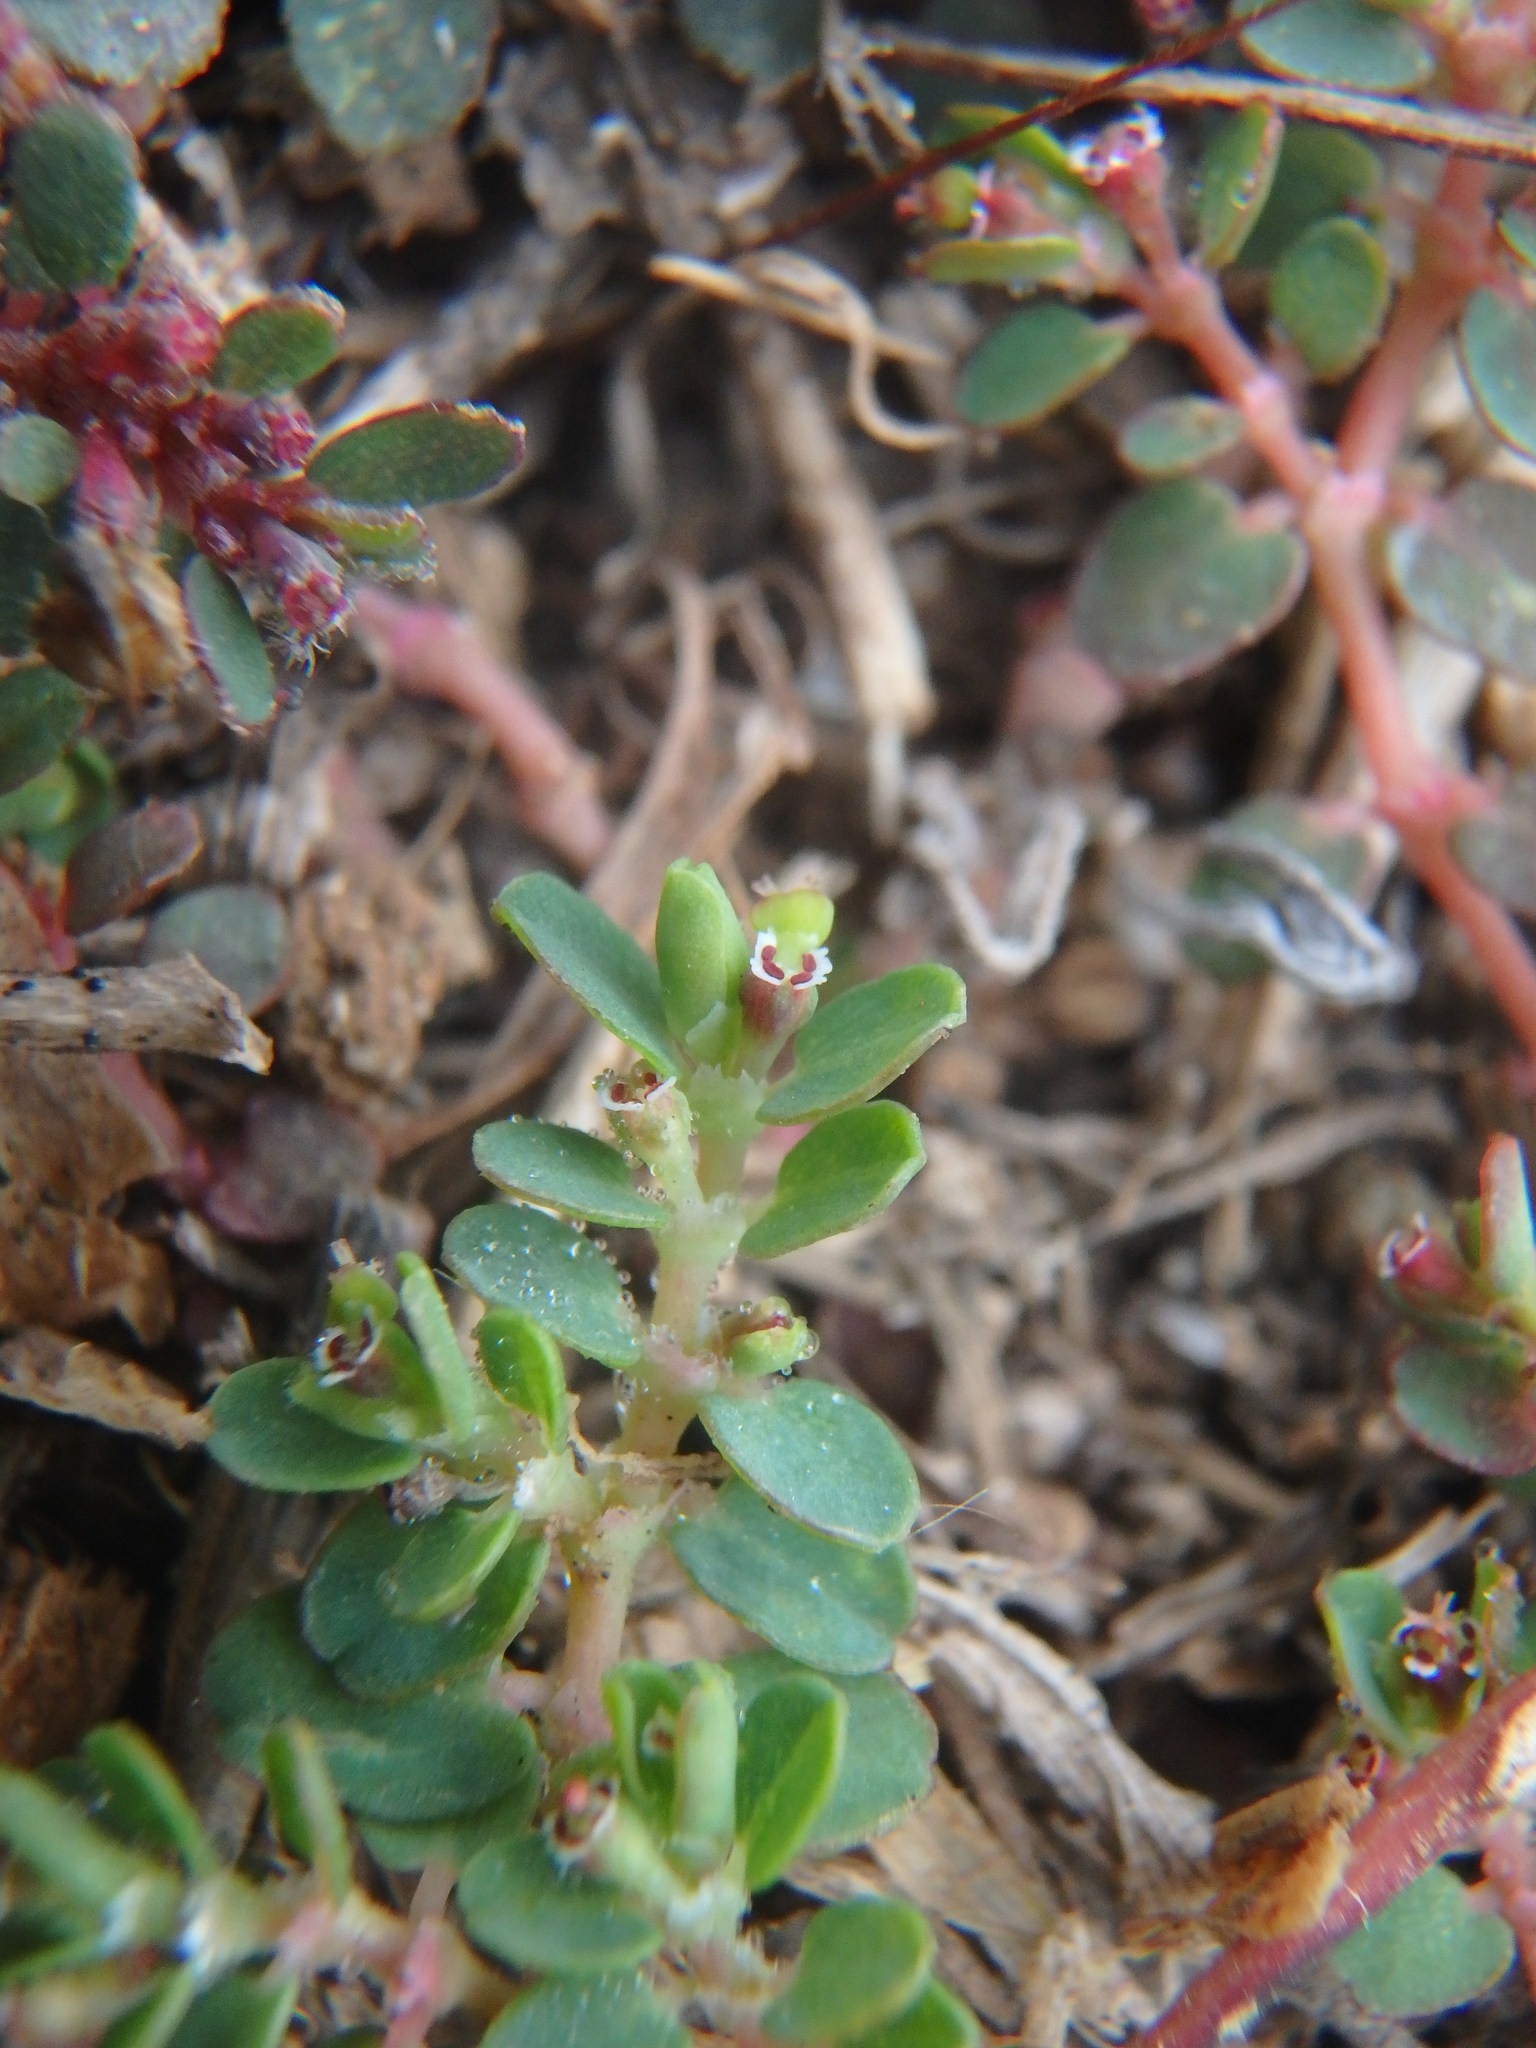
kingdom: Plantae
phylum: Tracheophyta
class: Magnoliopsida
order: Malpighiales
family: Euphorbiaceae
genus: Euphorbia
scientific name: Euphorbia serpens
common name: Matted sandmat
